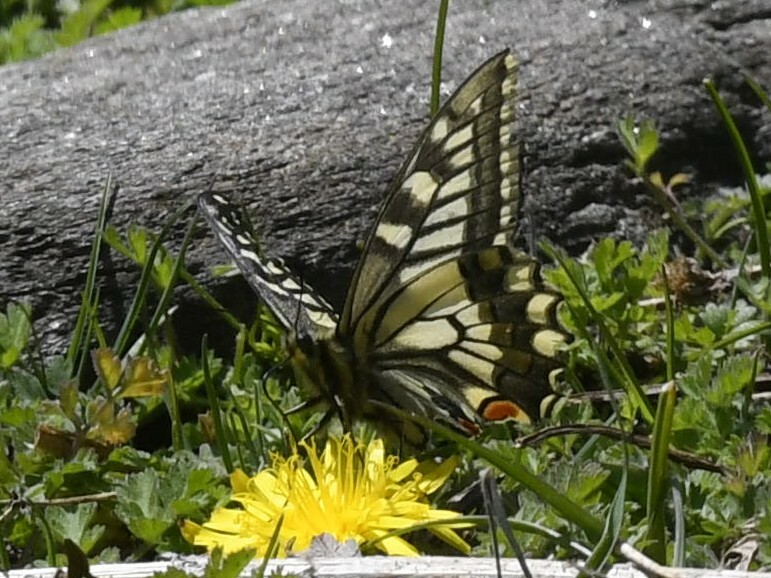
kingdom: Animalia
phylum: Arthropoda
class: Insecta
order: Lepidoptera
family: Papilionidae
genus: Papilio
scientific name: Papilio machaon
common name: Swallowtail
